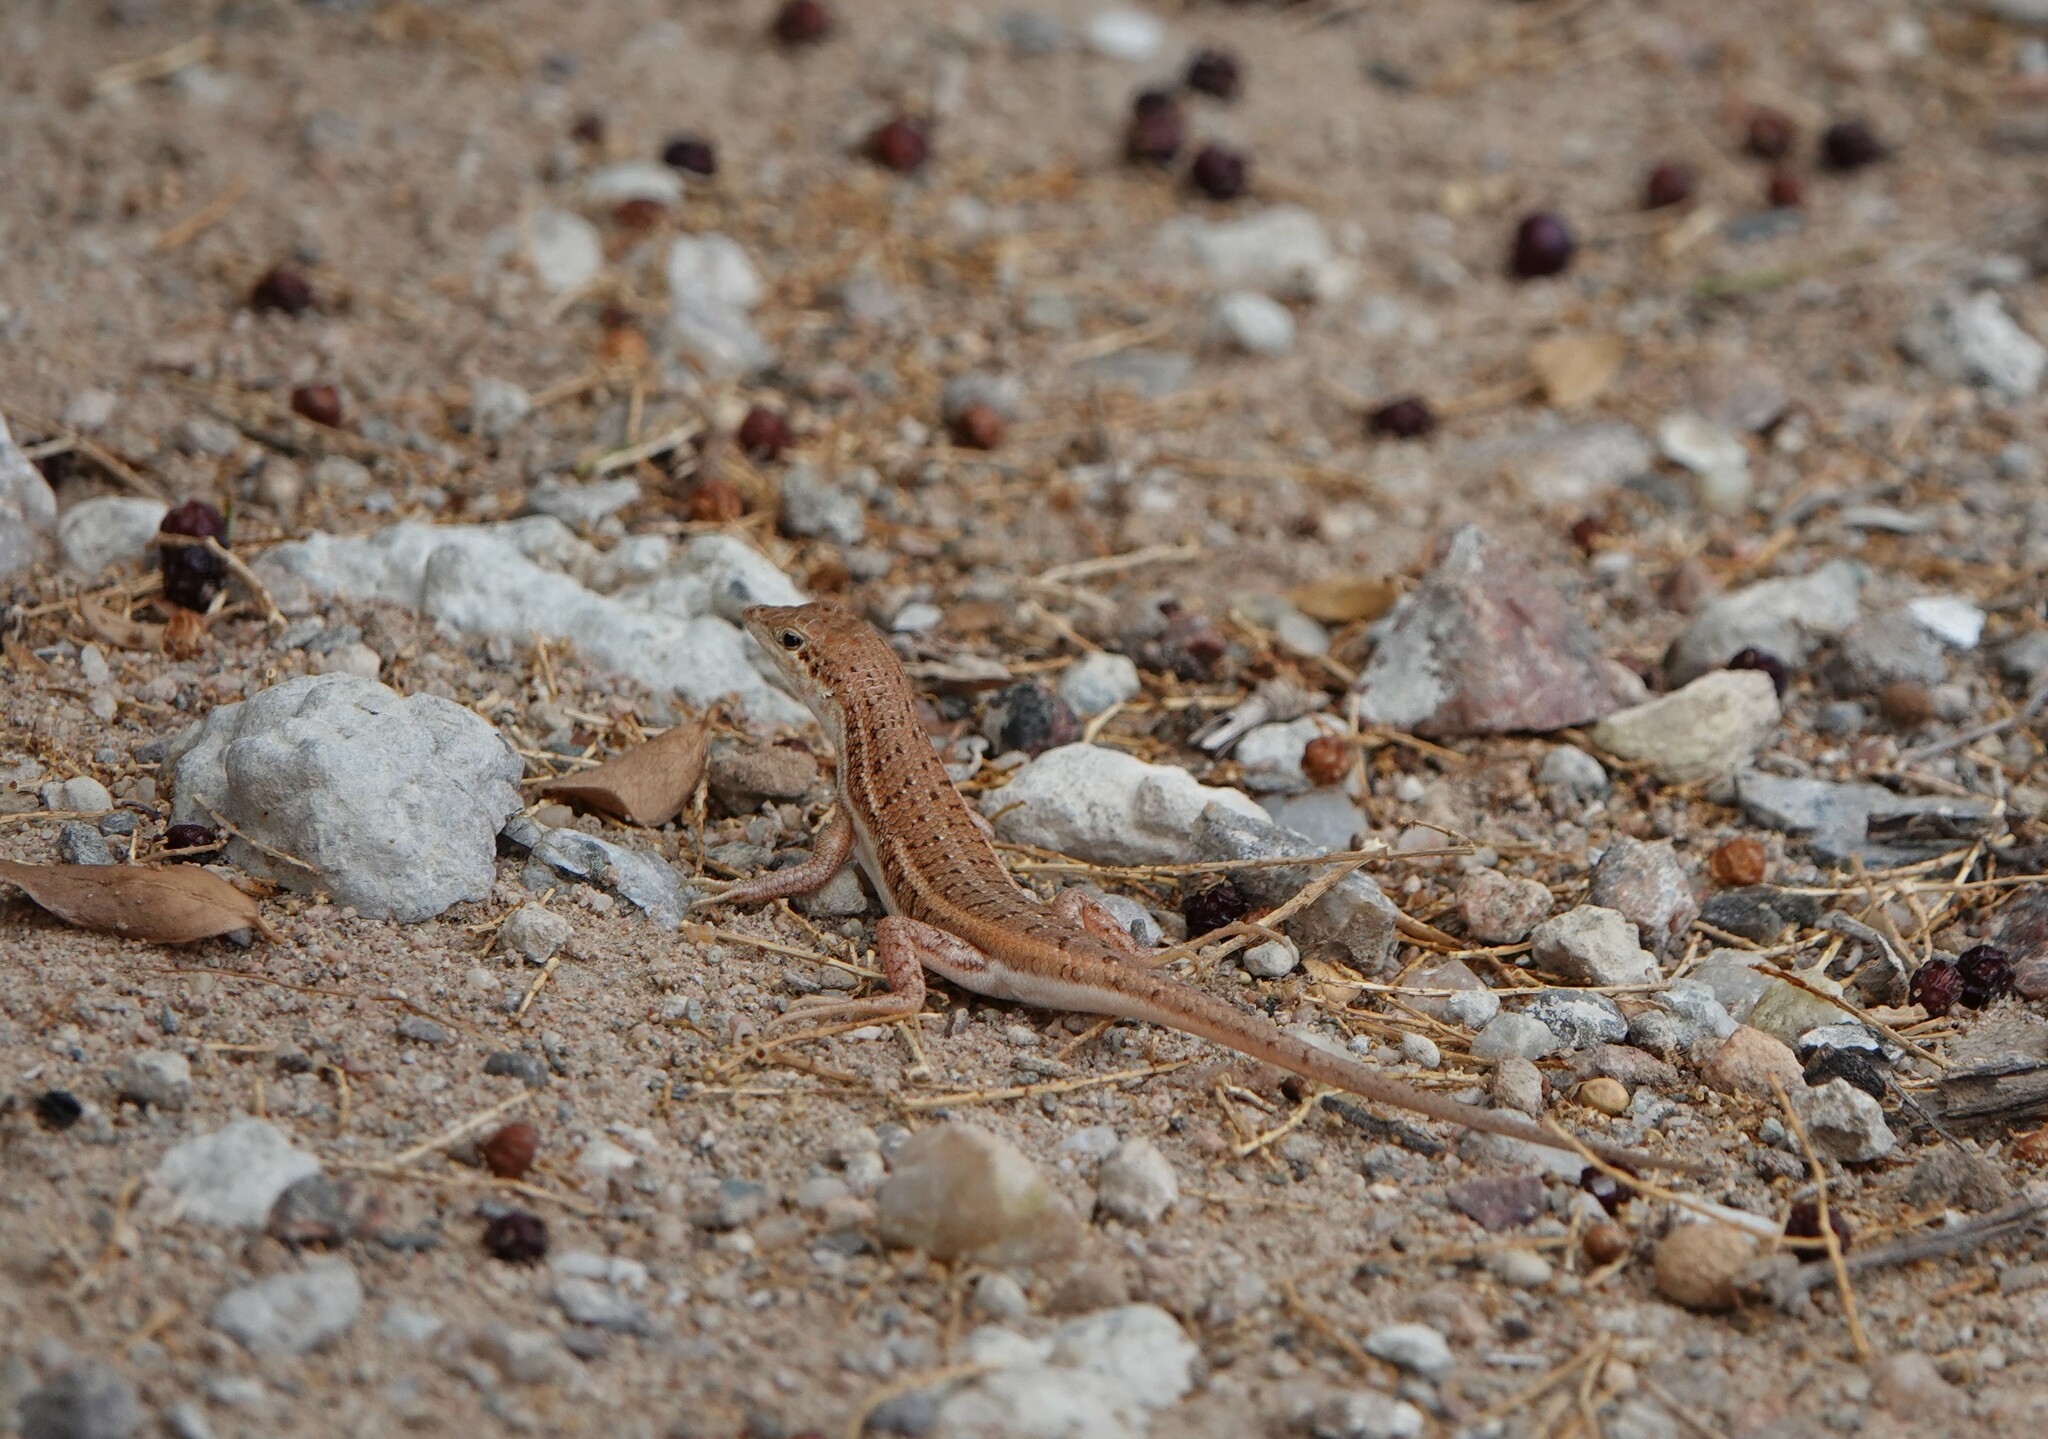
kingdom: Animalia
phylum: Chordata
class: Squamata
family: Scincidae
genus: Trachylepis
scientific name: Trachylepis acutilabris
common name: Sharp-lipped mabuya
